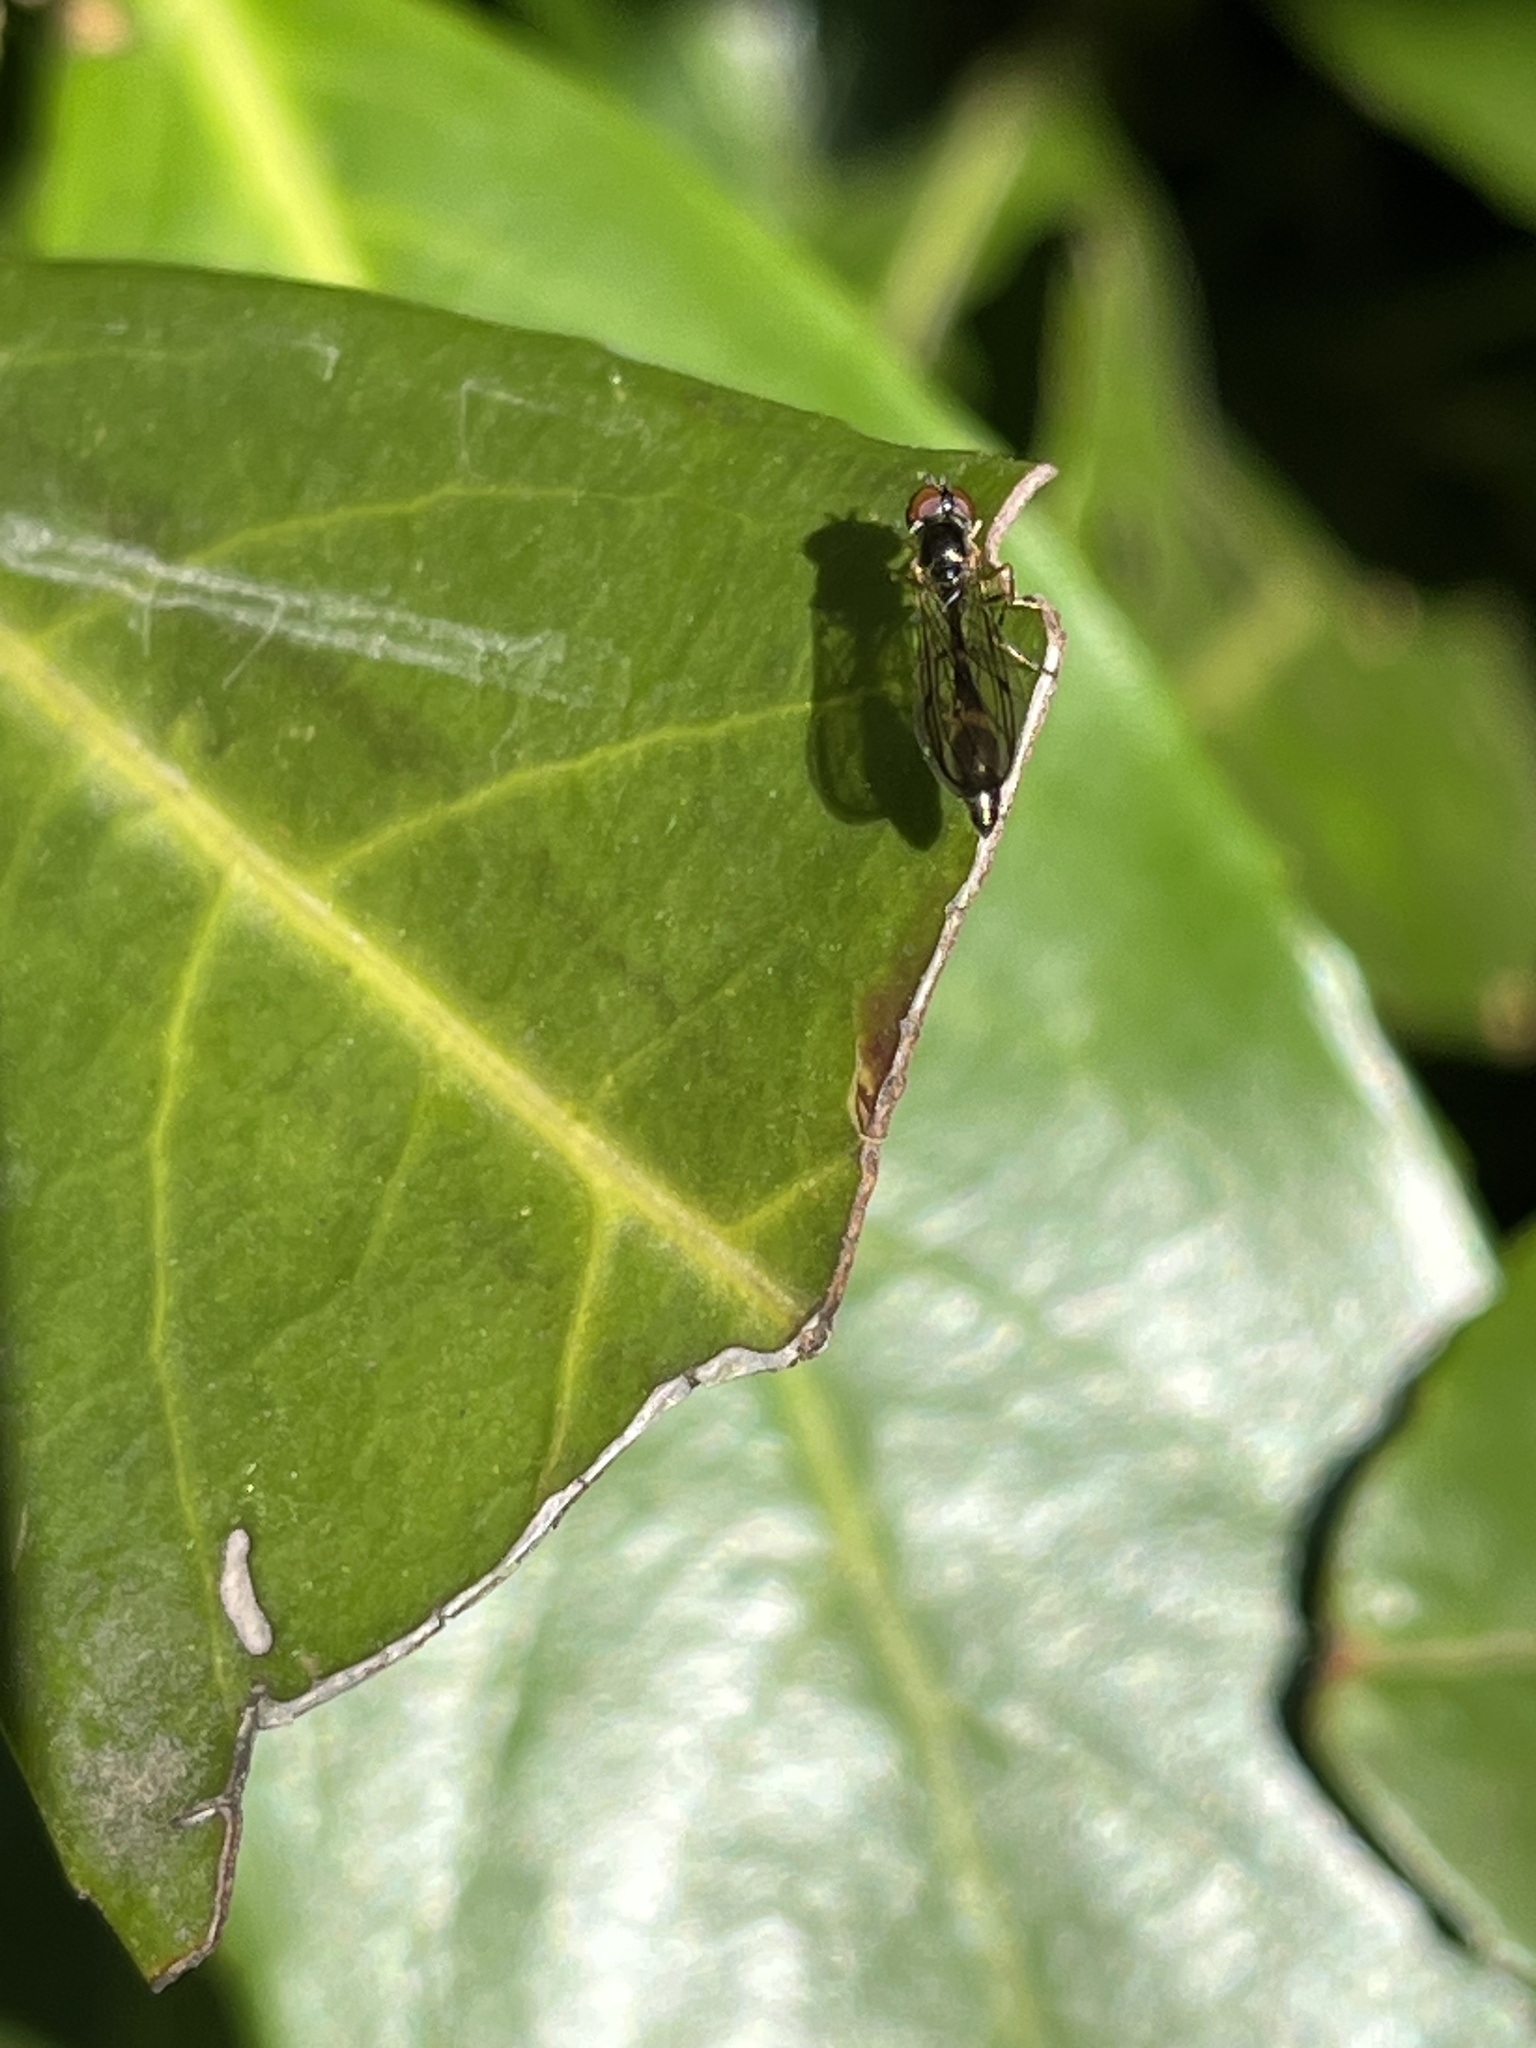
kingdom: Animalia
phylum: Arthropoda
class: Insecta
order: Diptera
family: Syrphidae
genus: Baccha
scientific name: Baccha elongata
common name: Common dainty
